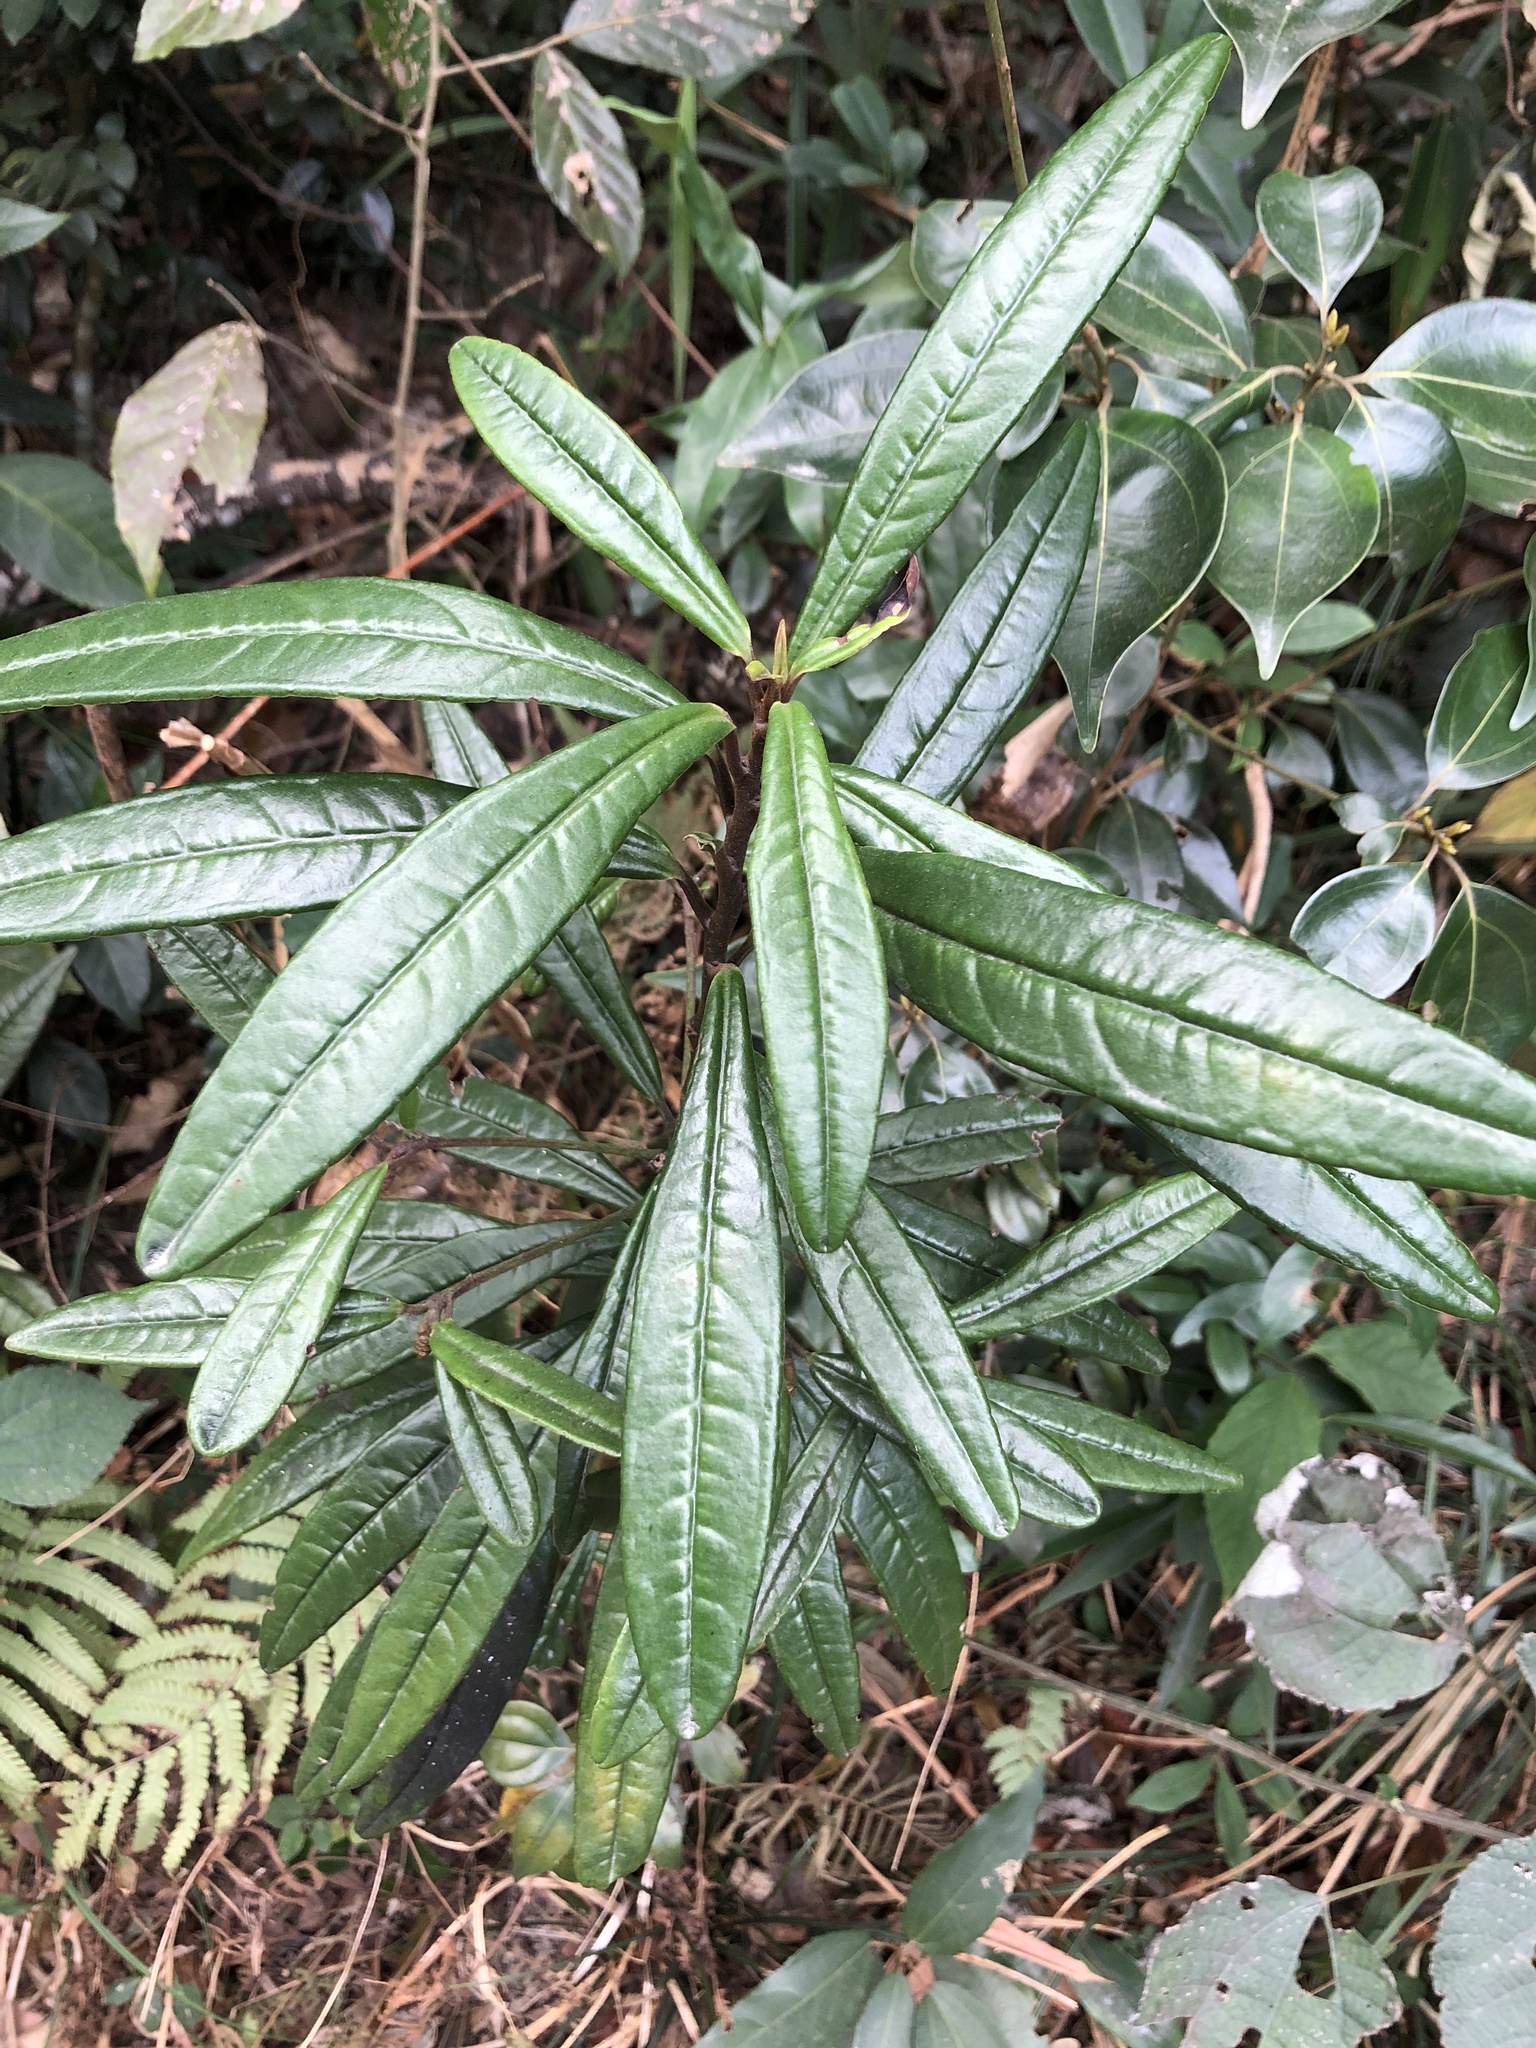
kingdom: Plantae
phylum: Tracheophyta
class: Magnoliopsida
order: Ericales
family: Primulaceae
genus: Ardisia
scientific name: Ardisia lindleyana
